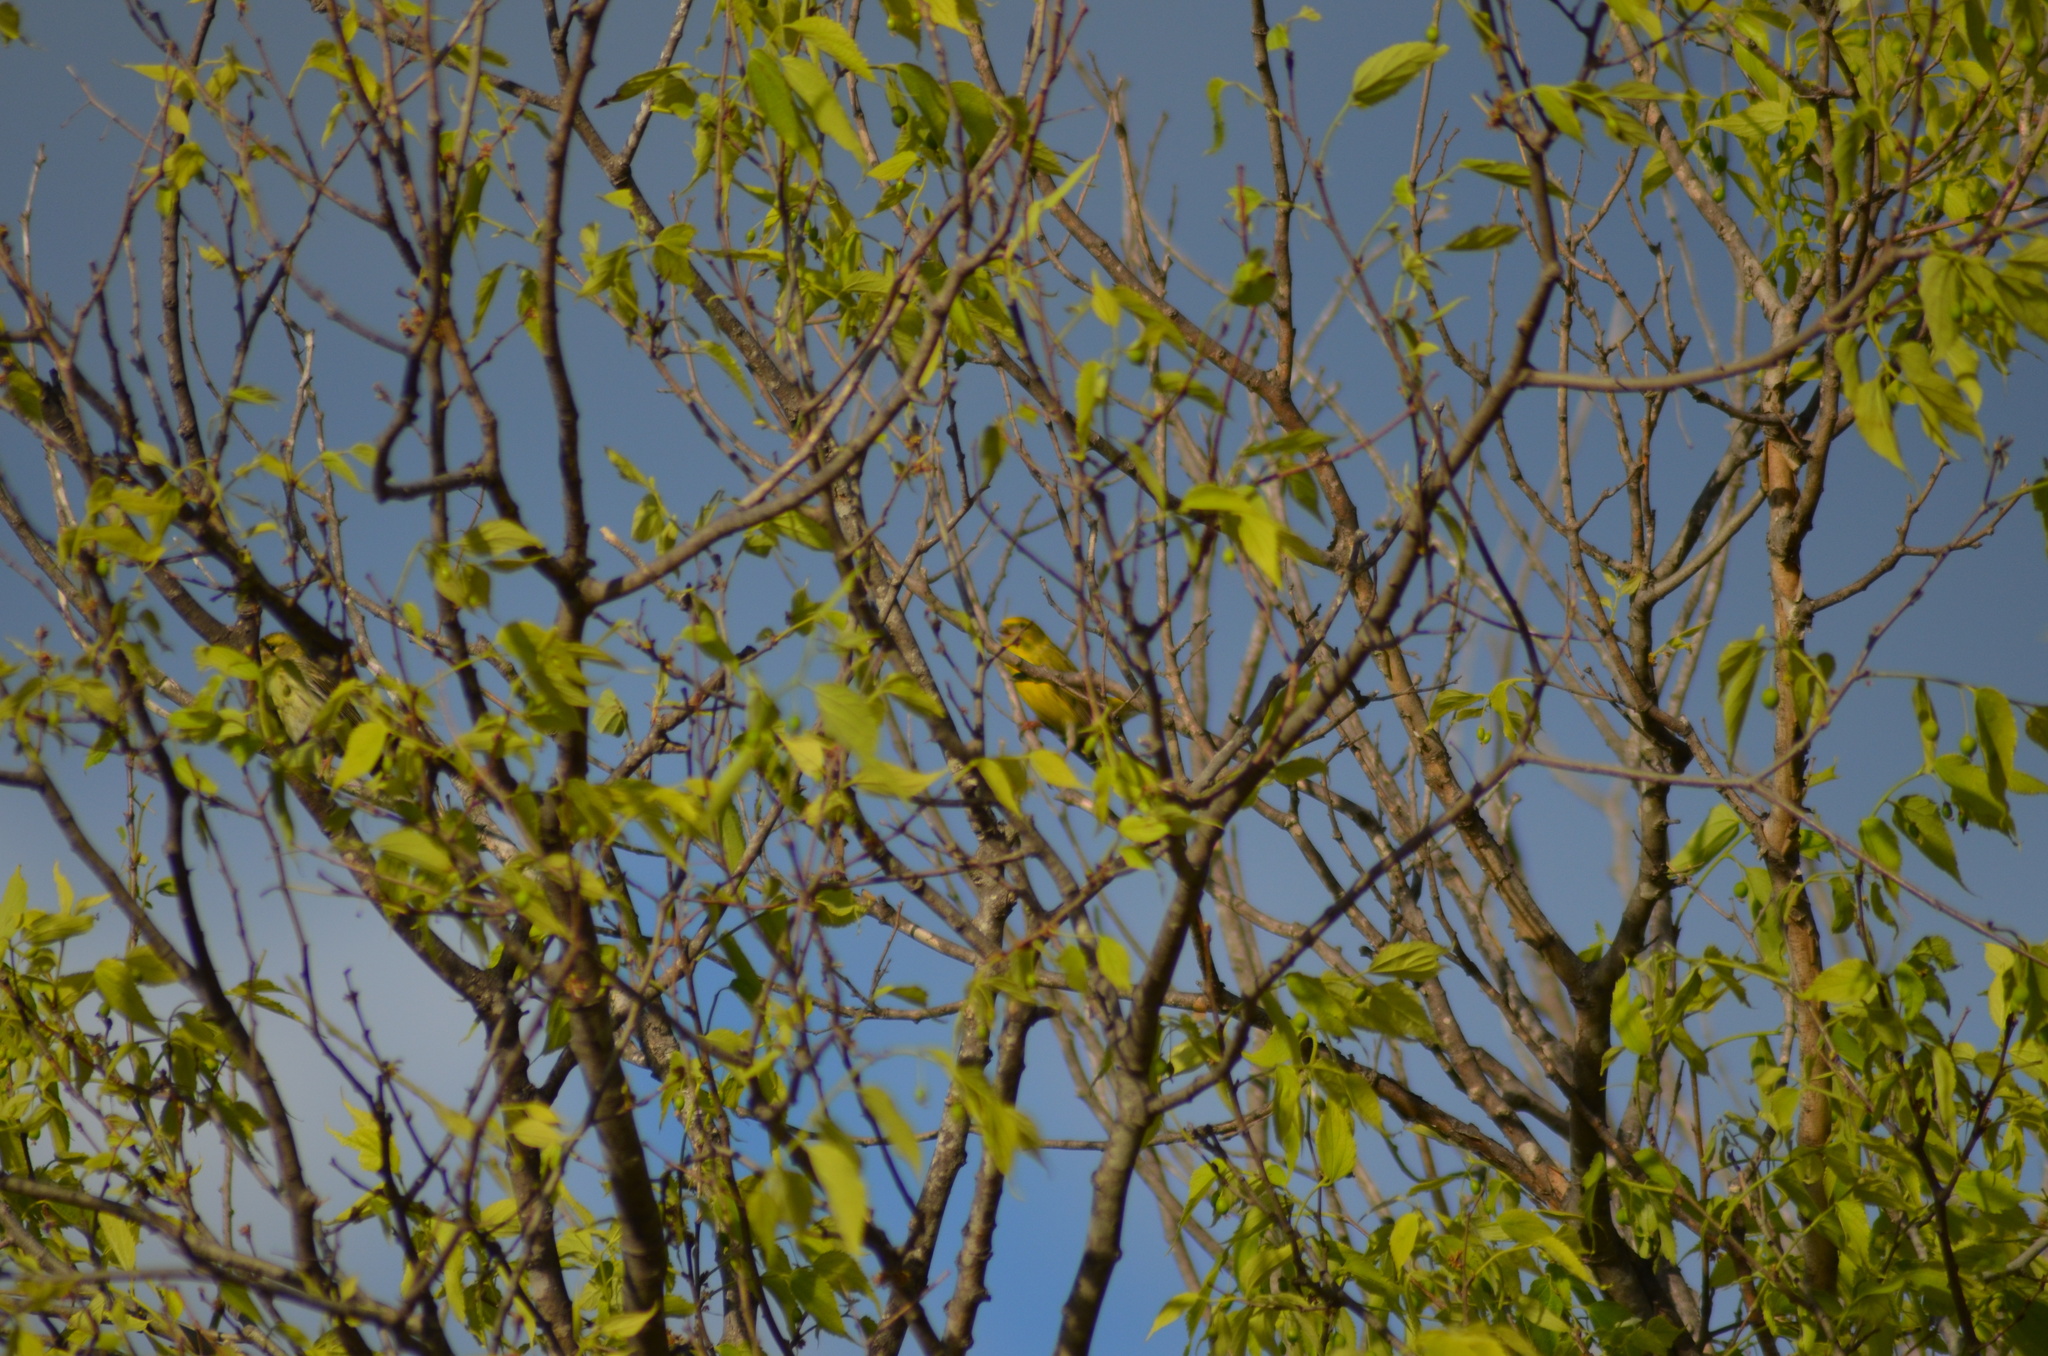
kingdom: Animalia
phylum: Chordata
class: Aves
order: Passeriformes
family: Fringillidae
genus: Serinus
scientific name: Serinus serinus
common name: European serin
